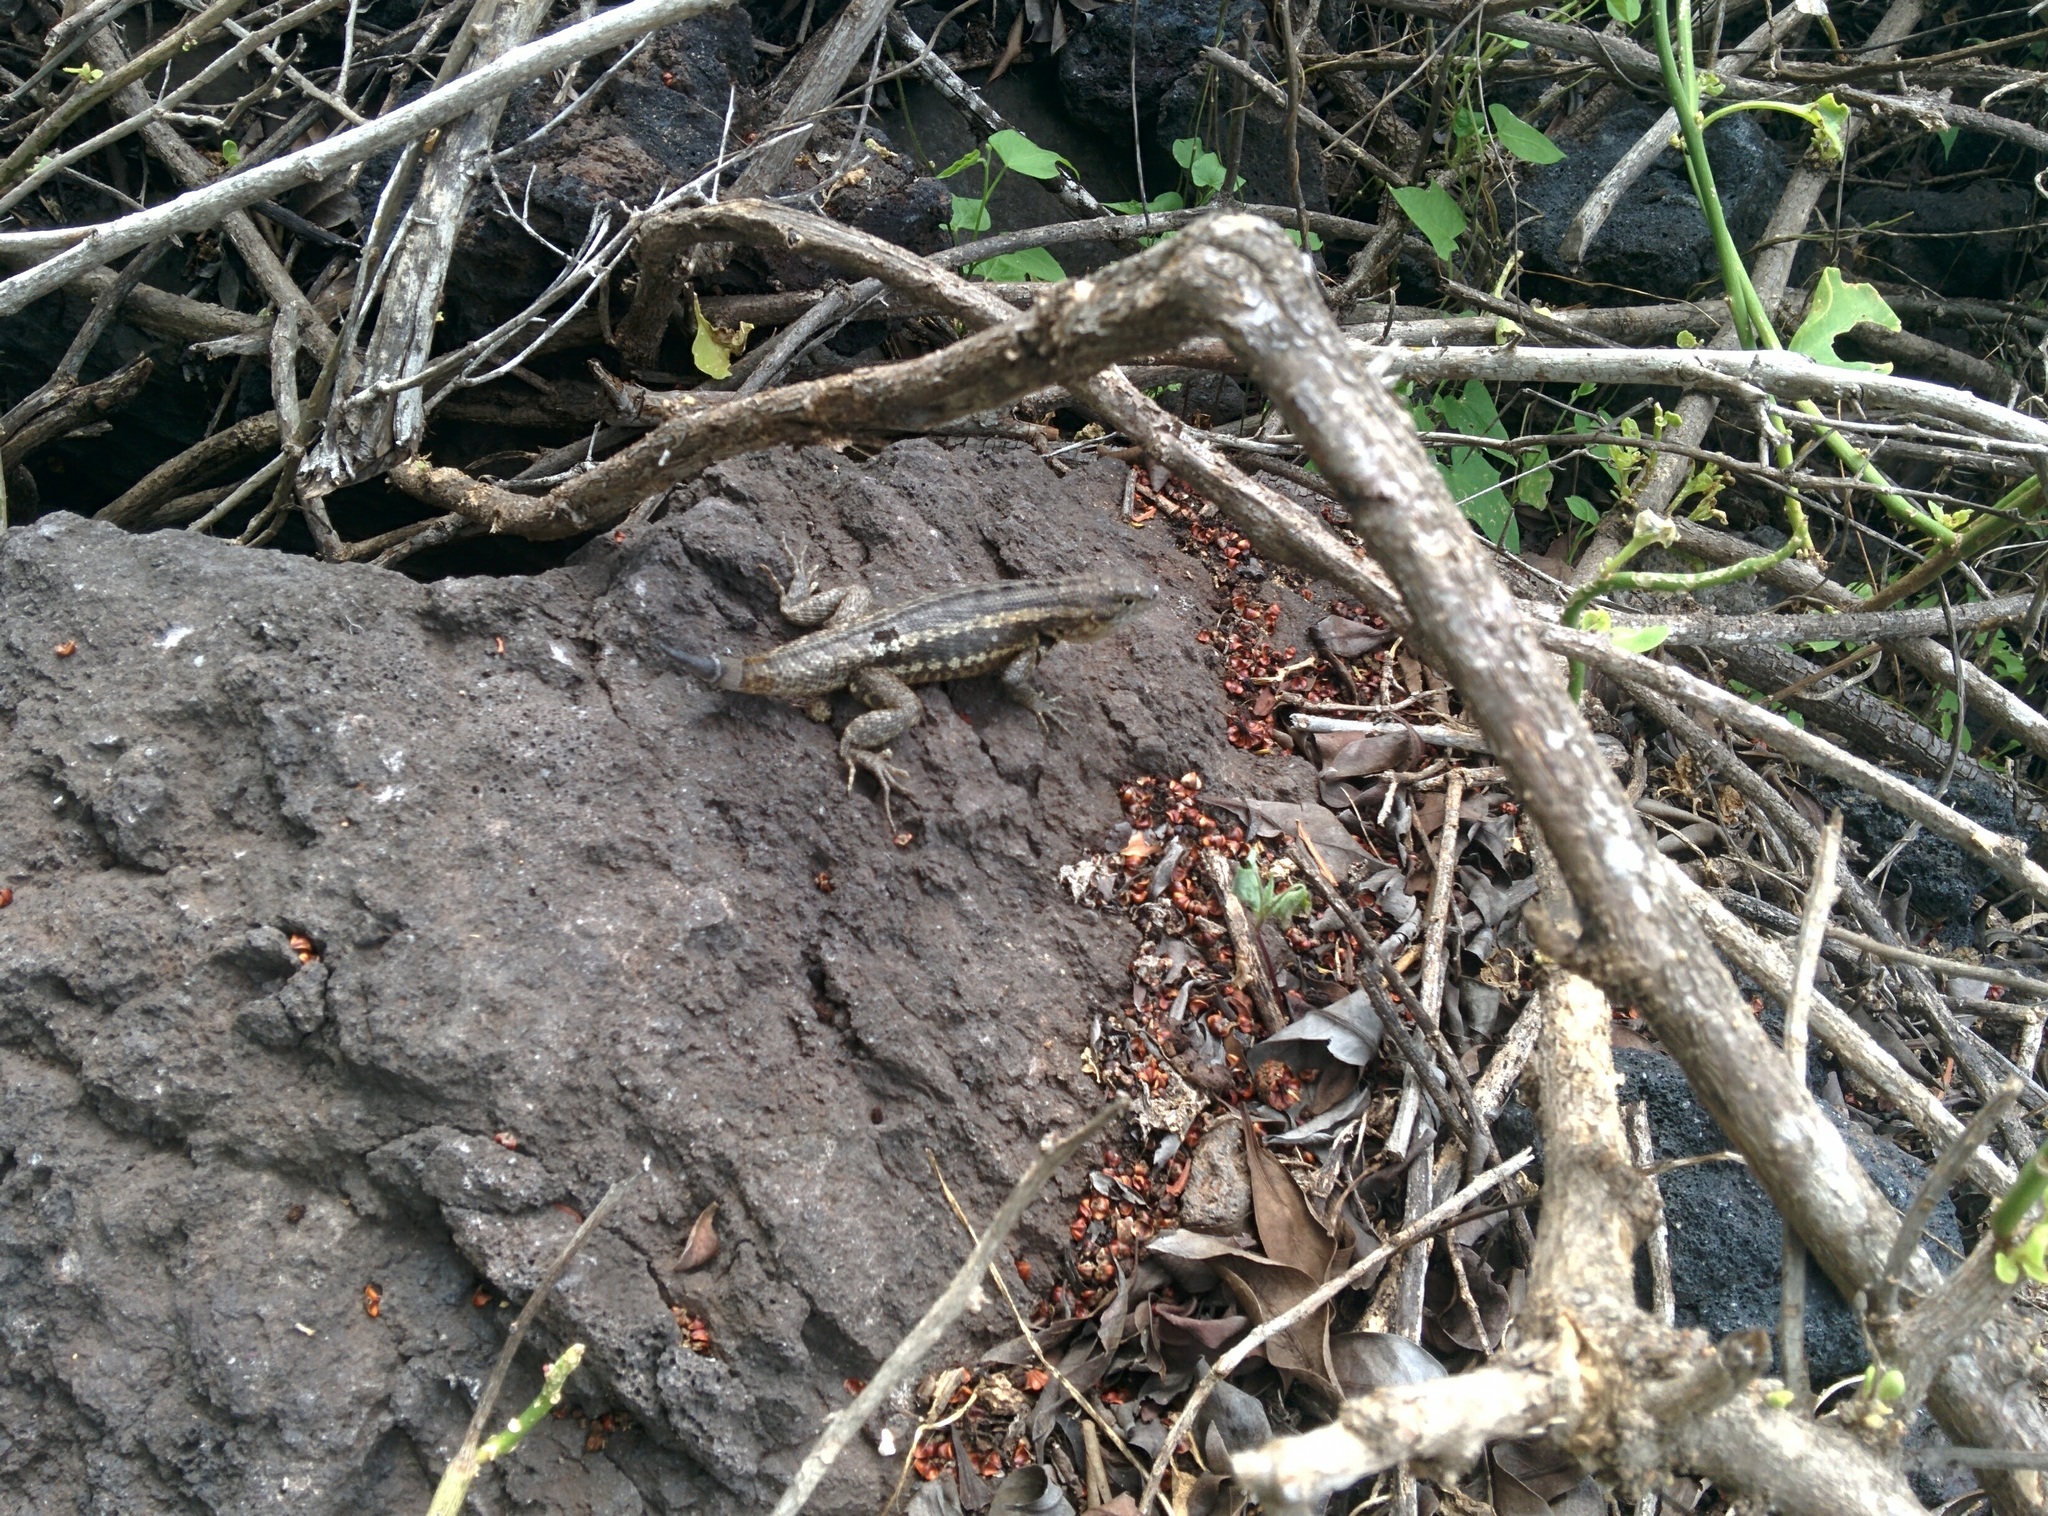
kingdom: Animalia
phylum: Chordata
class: Squamata
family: Tropiduridae
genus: Microlophus
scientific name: Microlophus bivittatus
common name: San cristobal lava lizard
